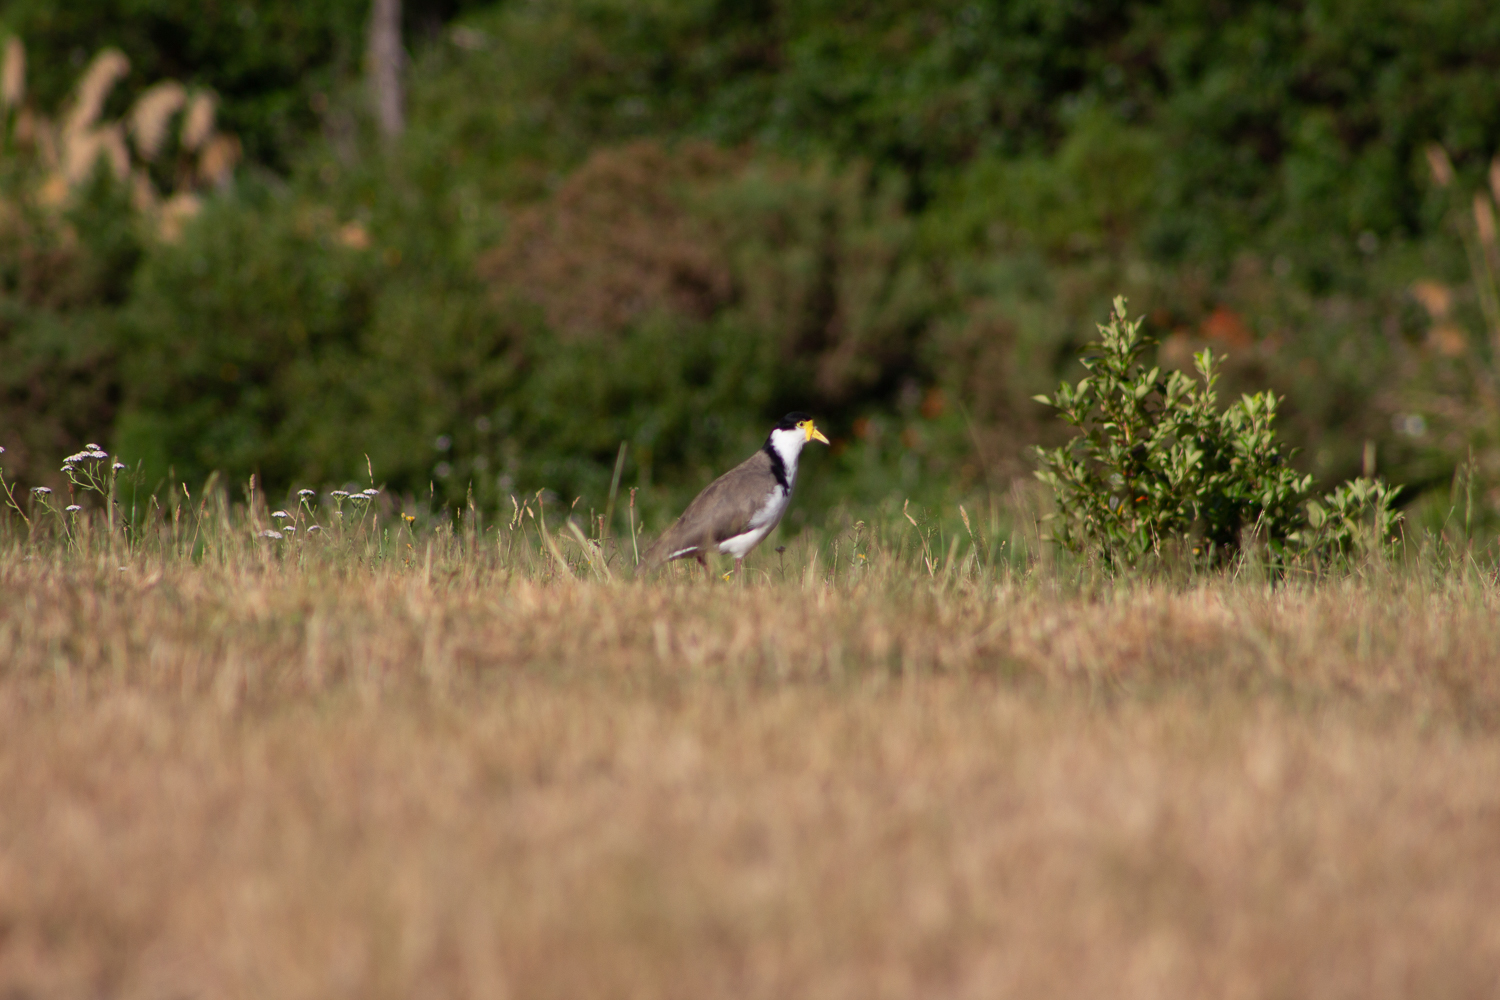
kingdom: Animalia
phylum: Chordata
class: Aves
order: Charadriiformes
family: Charadriidae
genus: Vanellus
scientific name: Vanellus miles
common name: Masked lapwing
